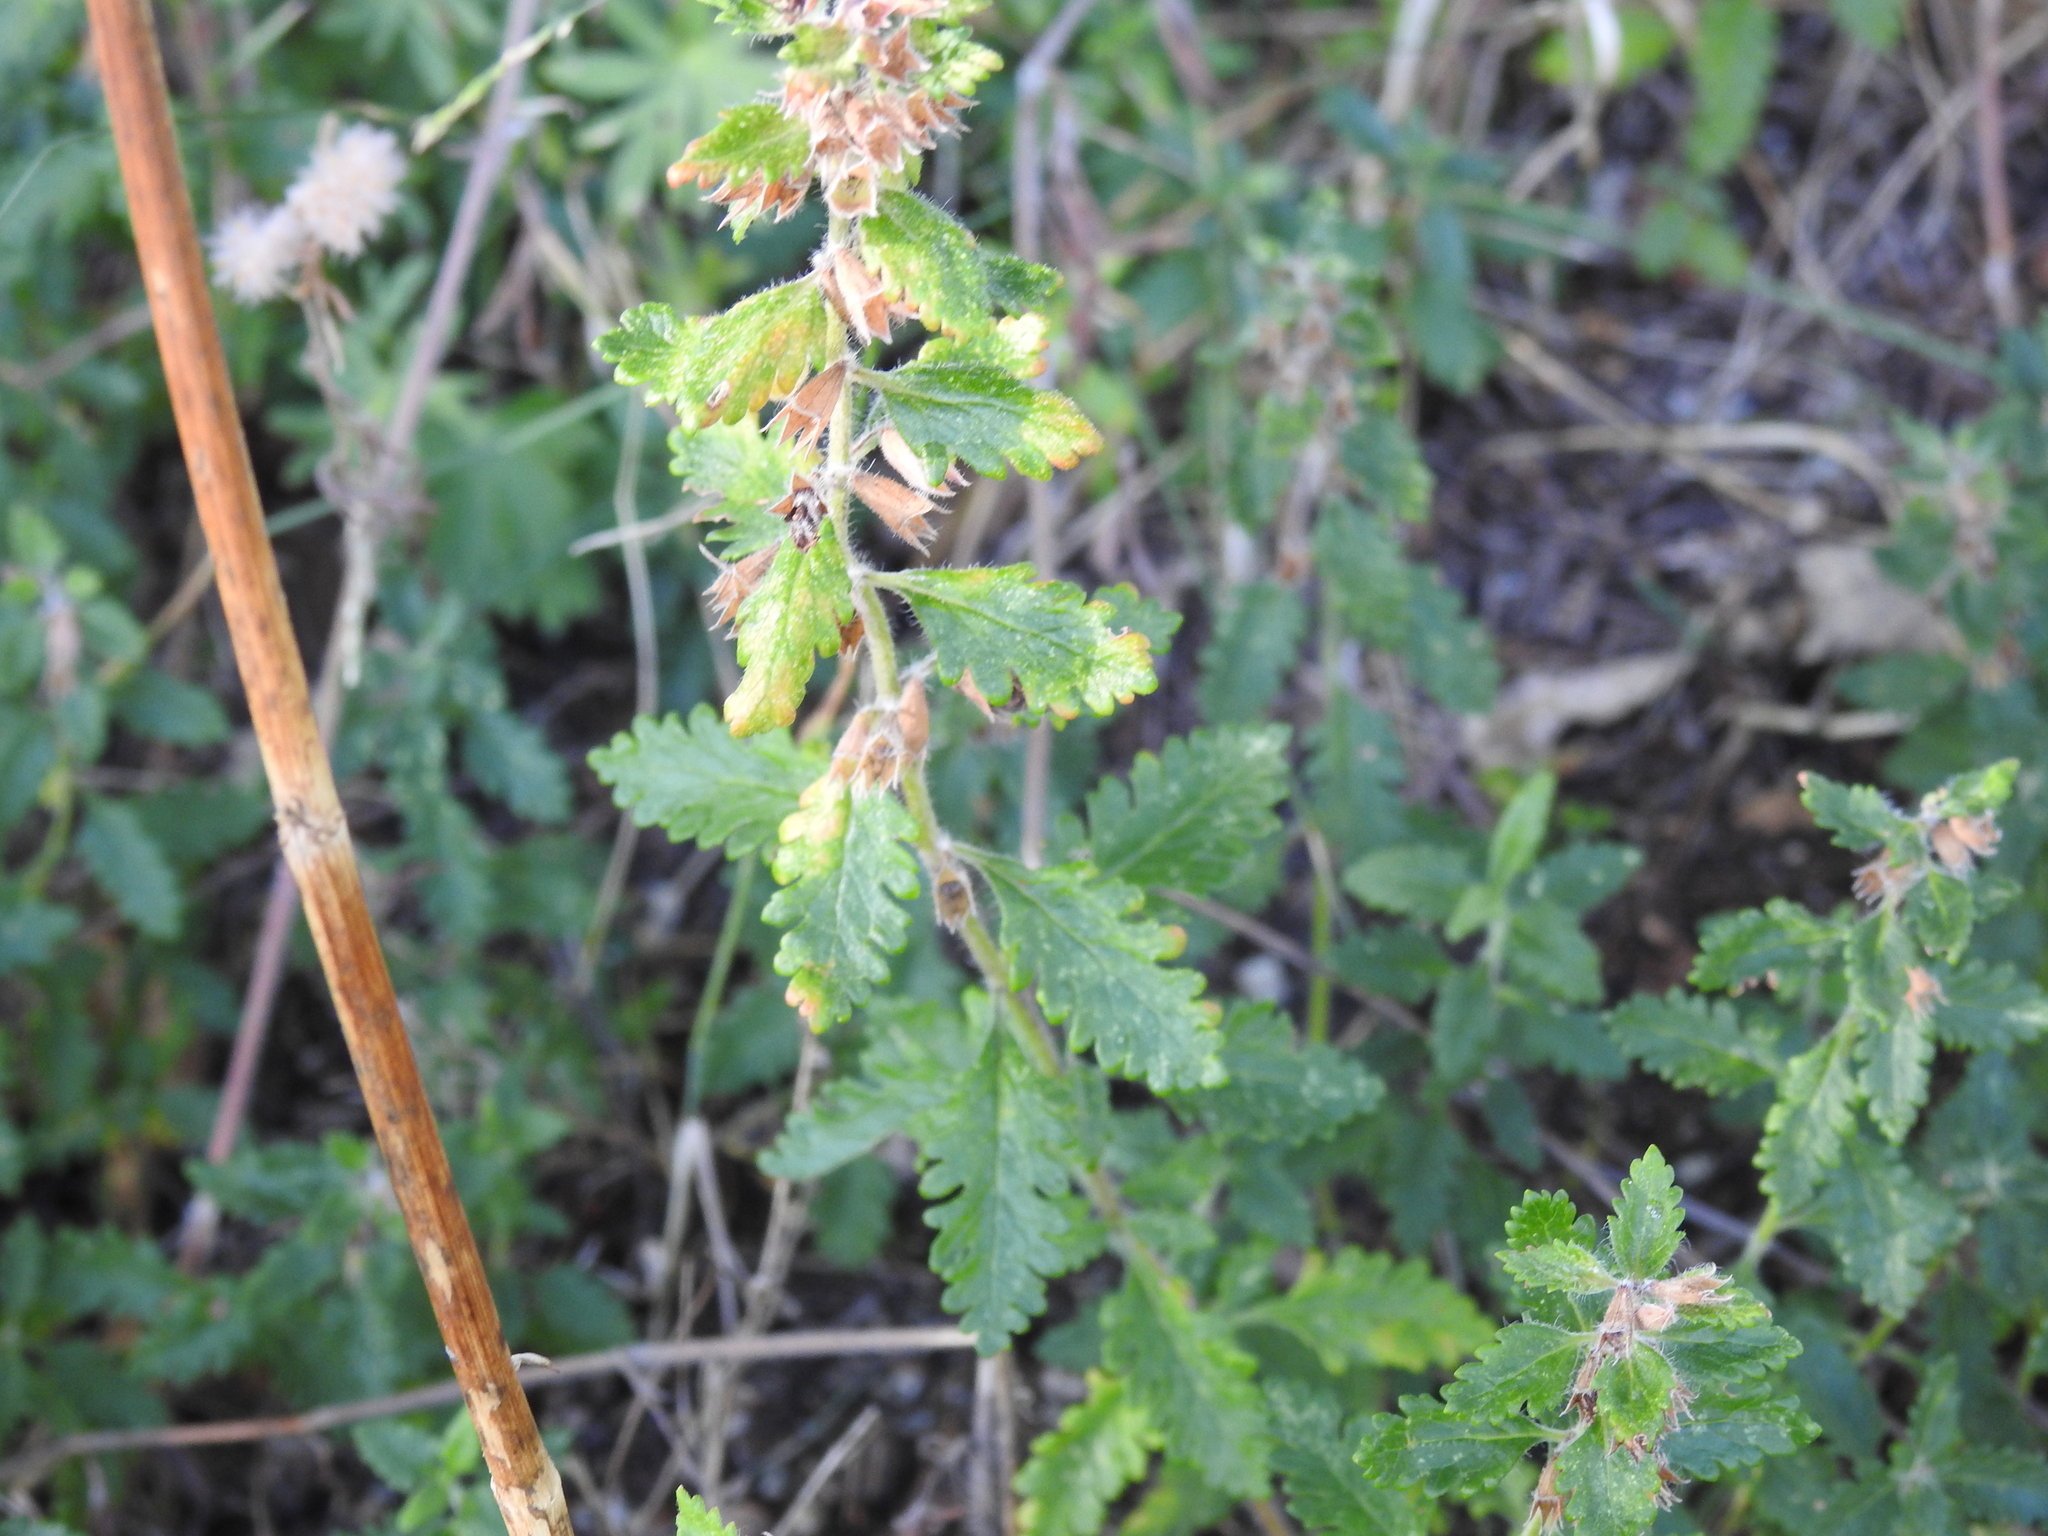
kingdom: Plantae
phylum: Tracheophyta
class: Magnoliopsida
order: Lamiales
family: Lamiaceae
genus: Teucrium
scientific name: Teucrium chamaedrys
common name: Wall germander
